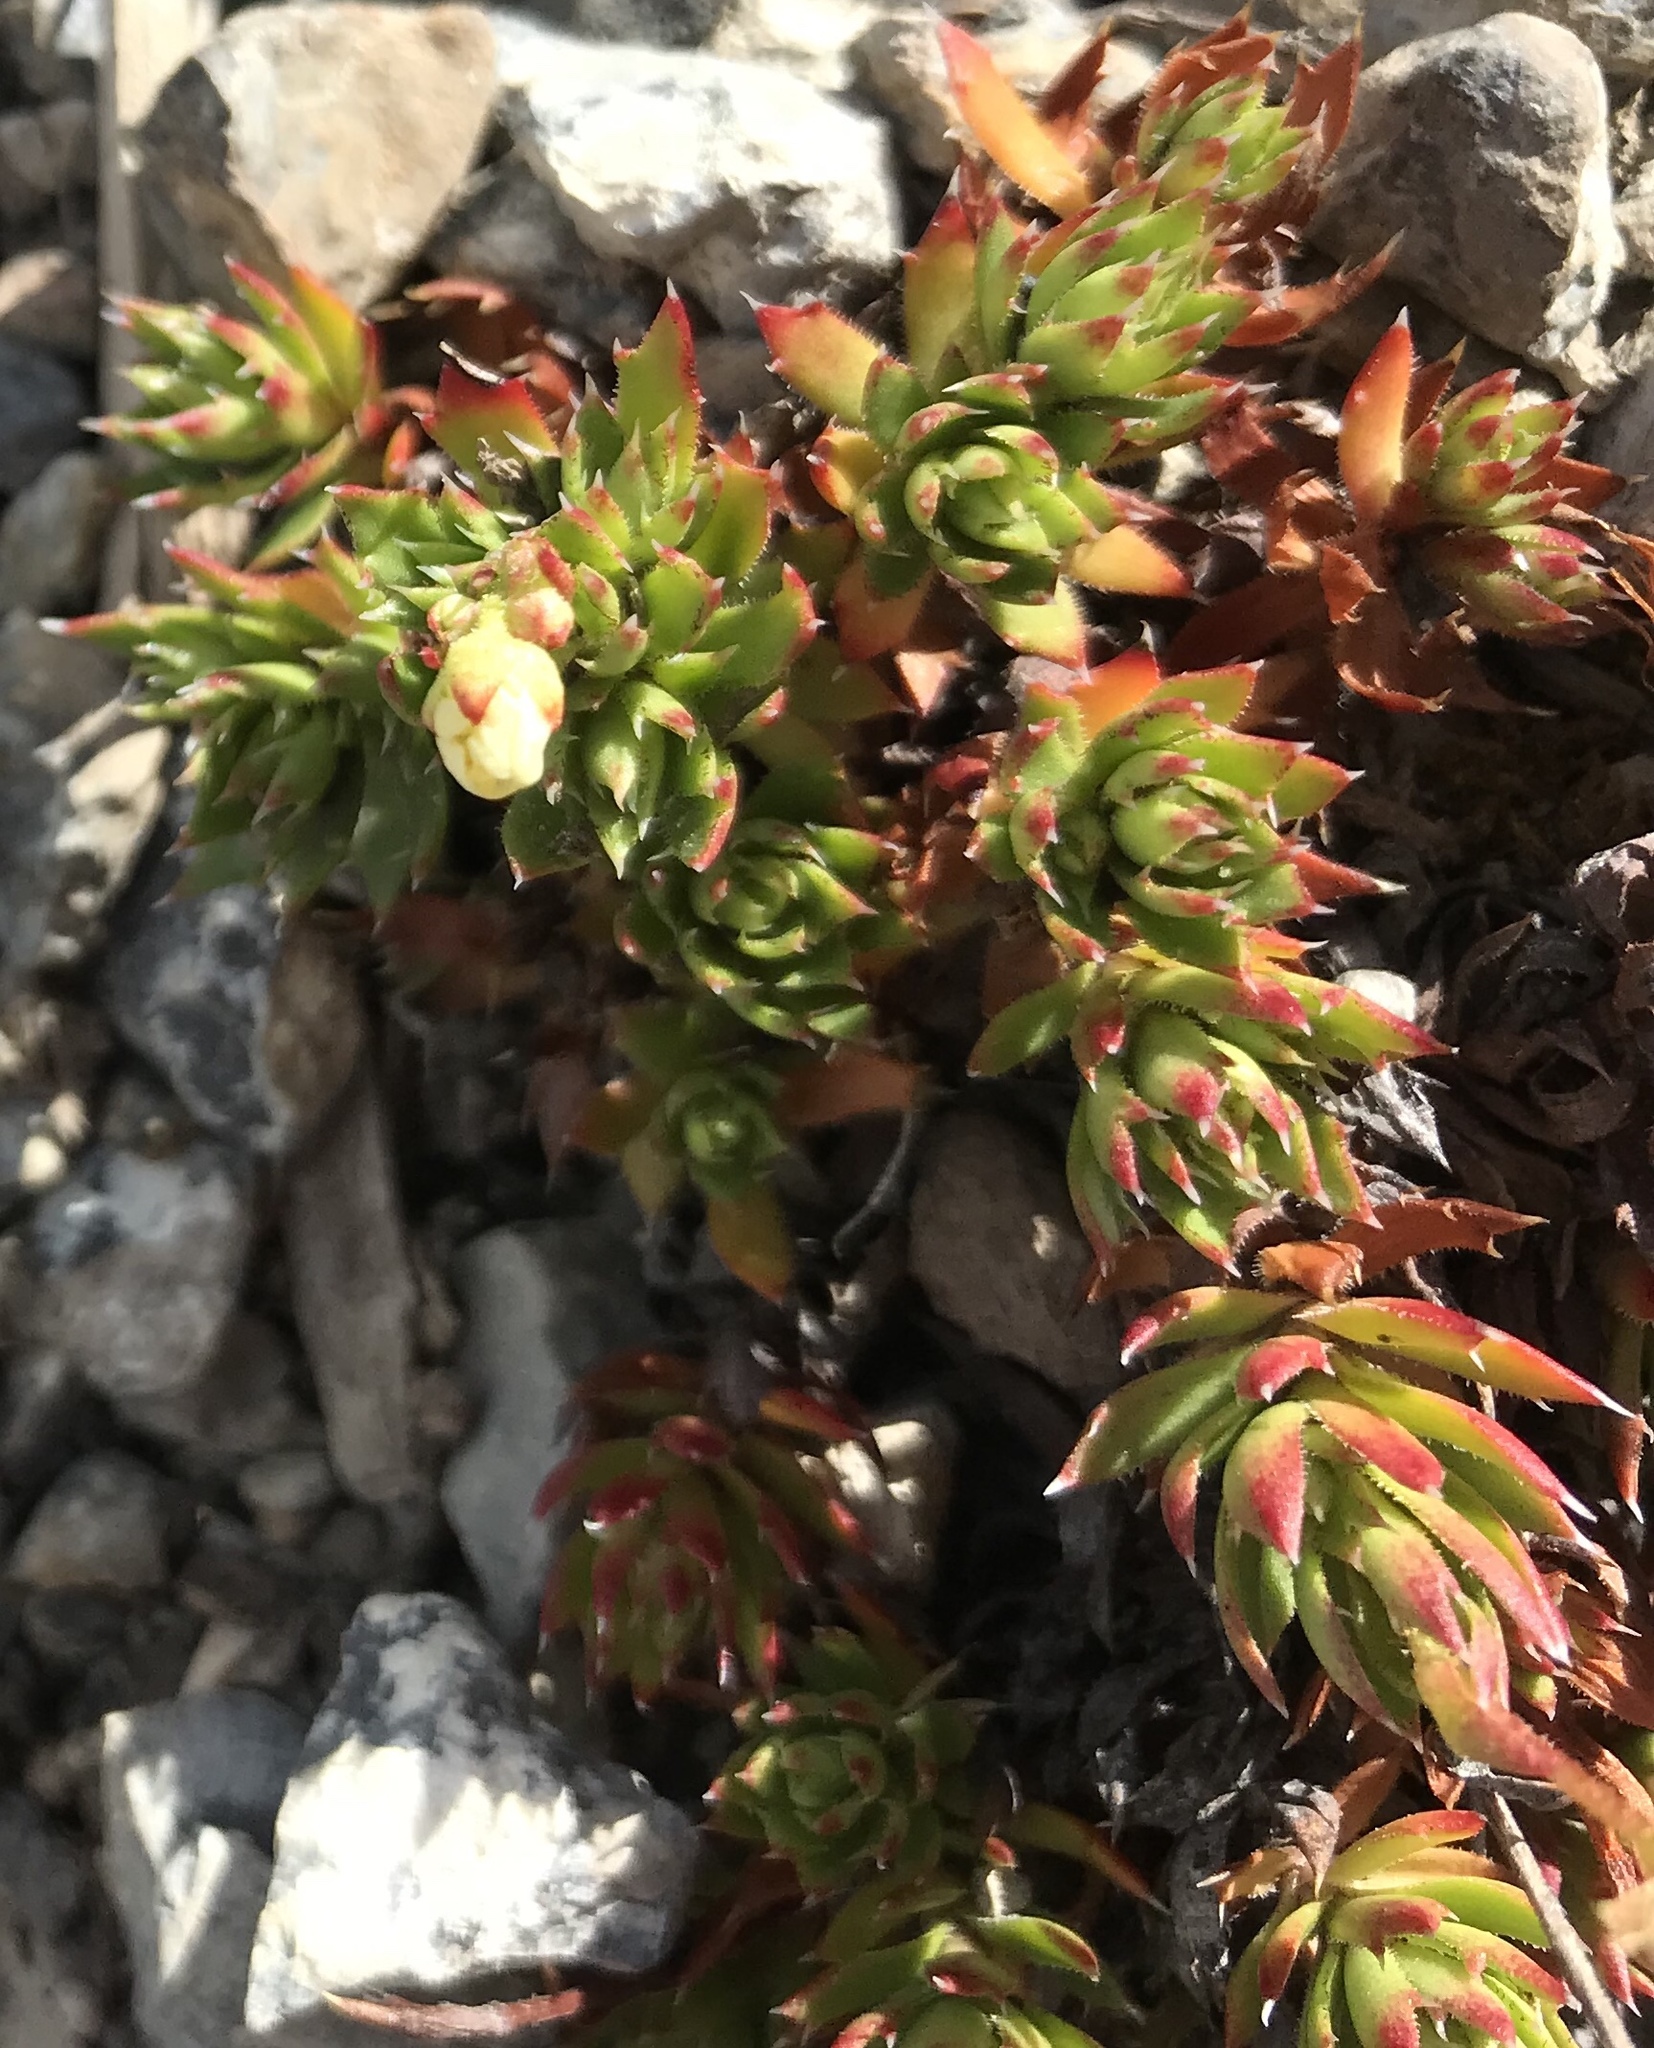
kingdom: Plantae
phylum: Tracheophyta
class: Magnoliopsida
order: Saxifragales
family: Saxifragaceae
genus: Saxifraga
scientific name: Saxifraga tricuspidata
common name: Prickly saxifrage
